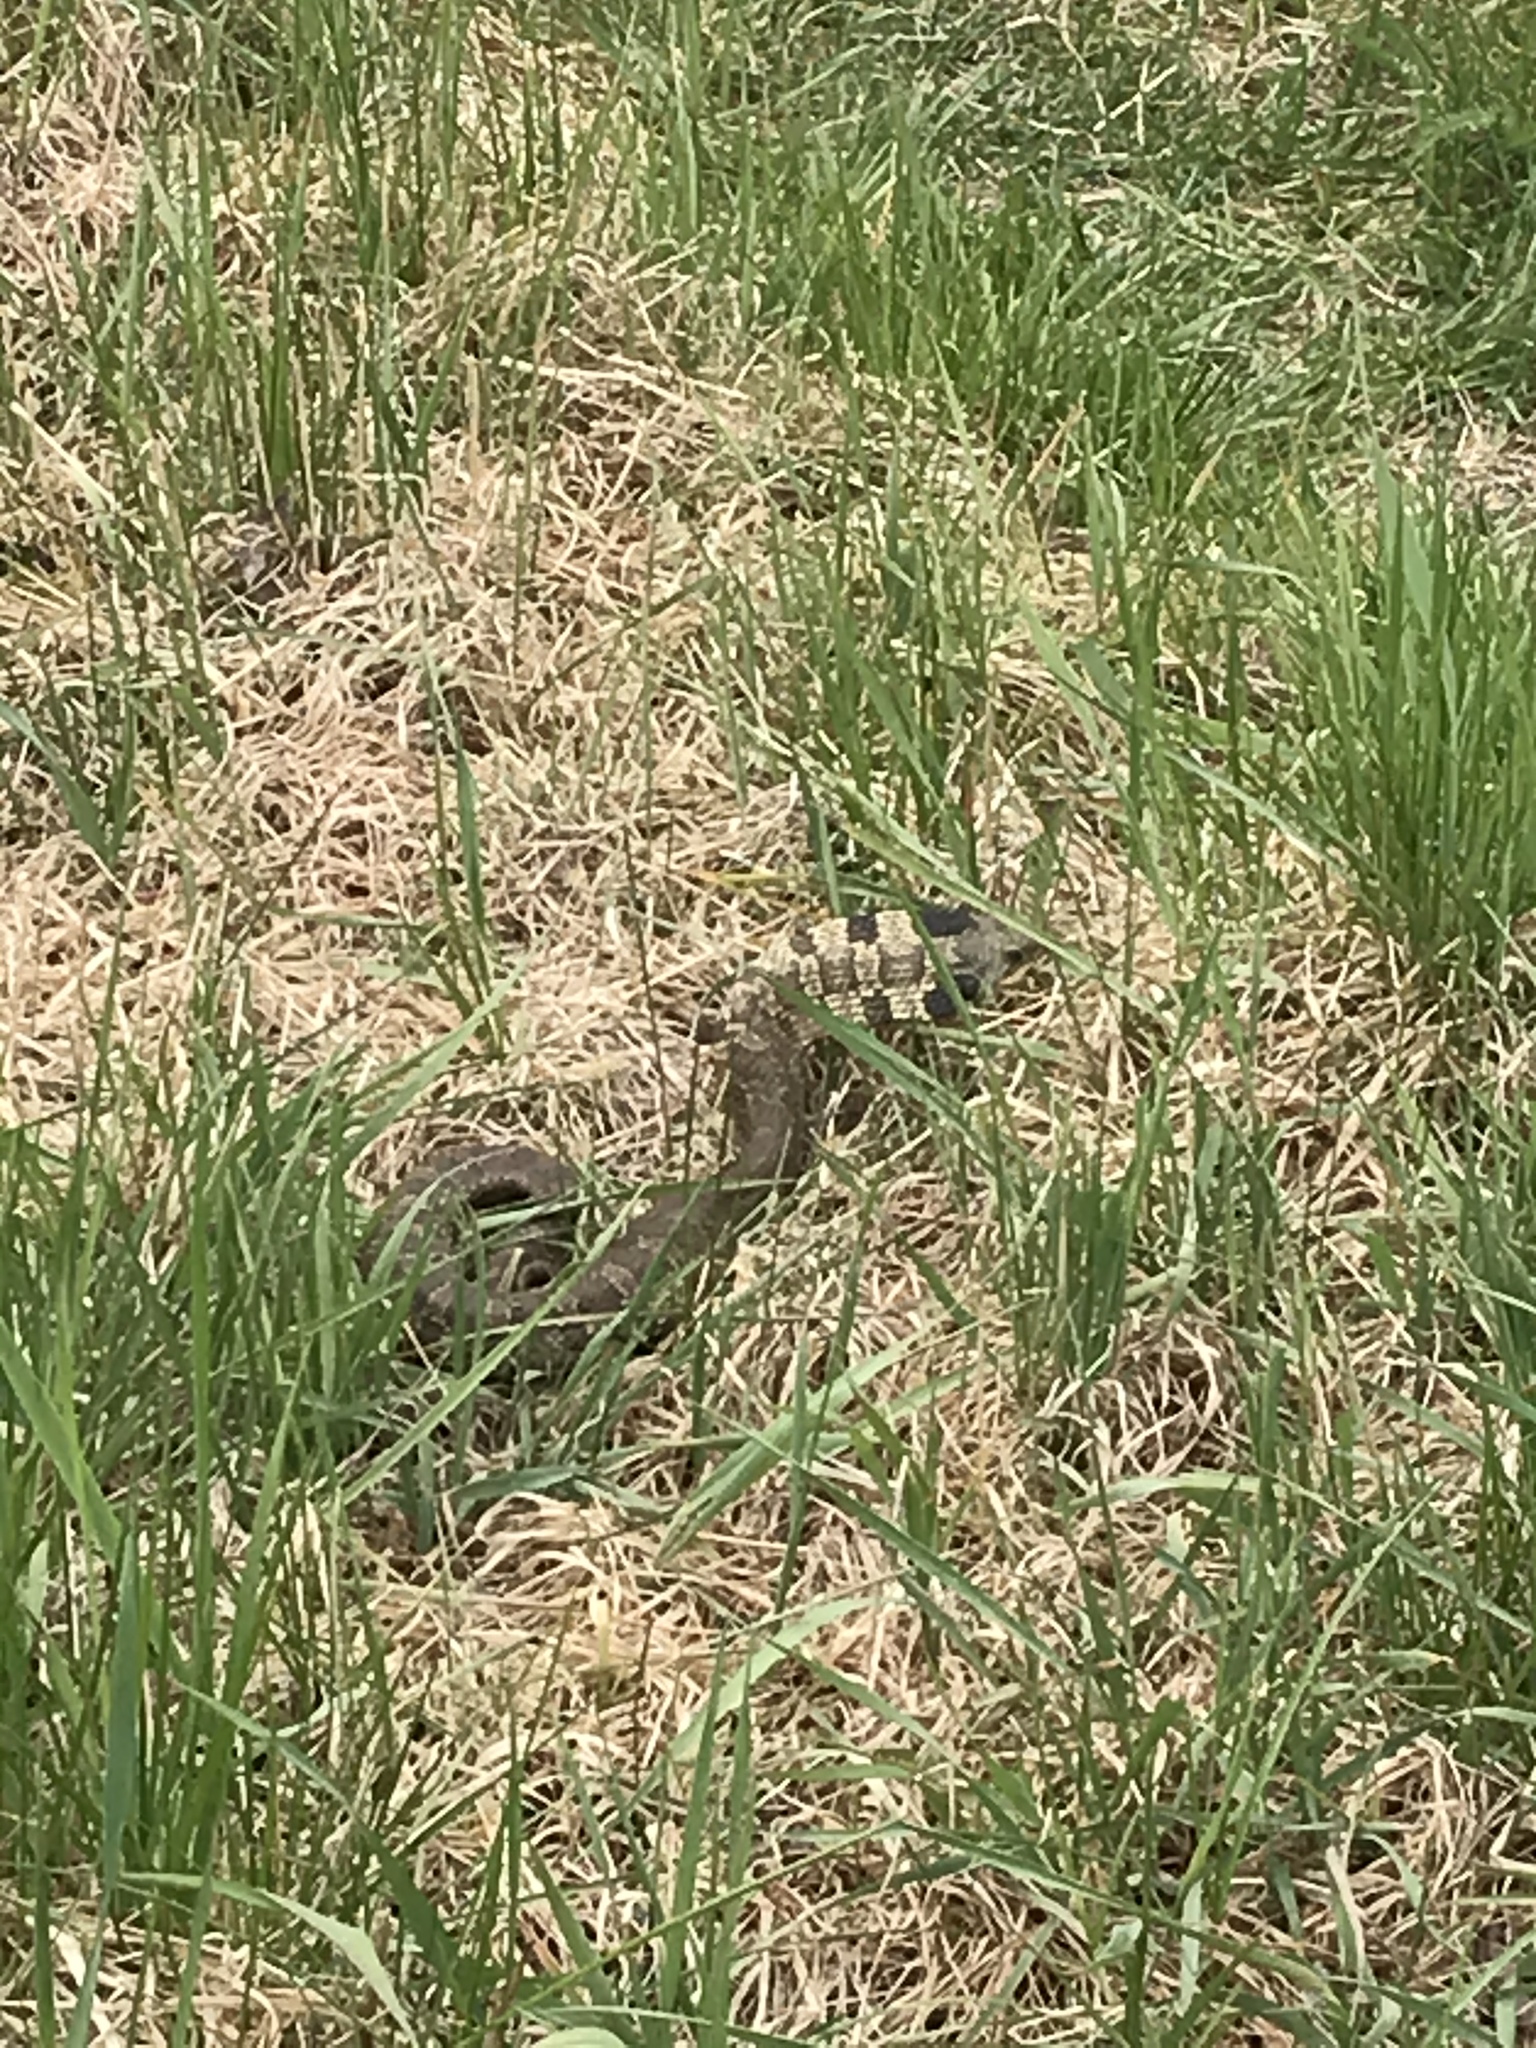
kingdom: Animalia
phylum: Chordata
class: Squamata
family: Colubridae
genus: Heterodon
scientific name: Heterodon platirhinos
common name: Eastern hognose snake
